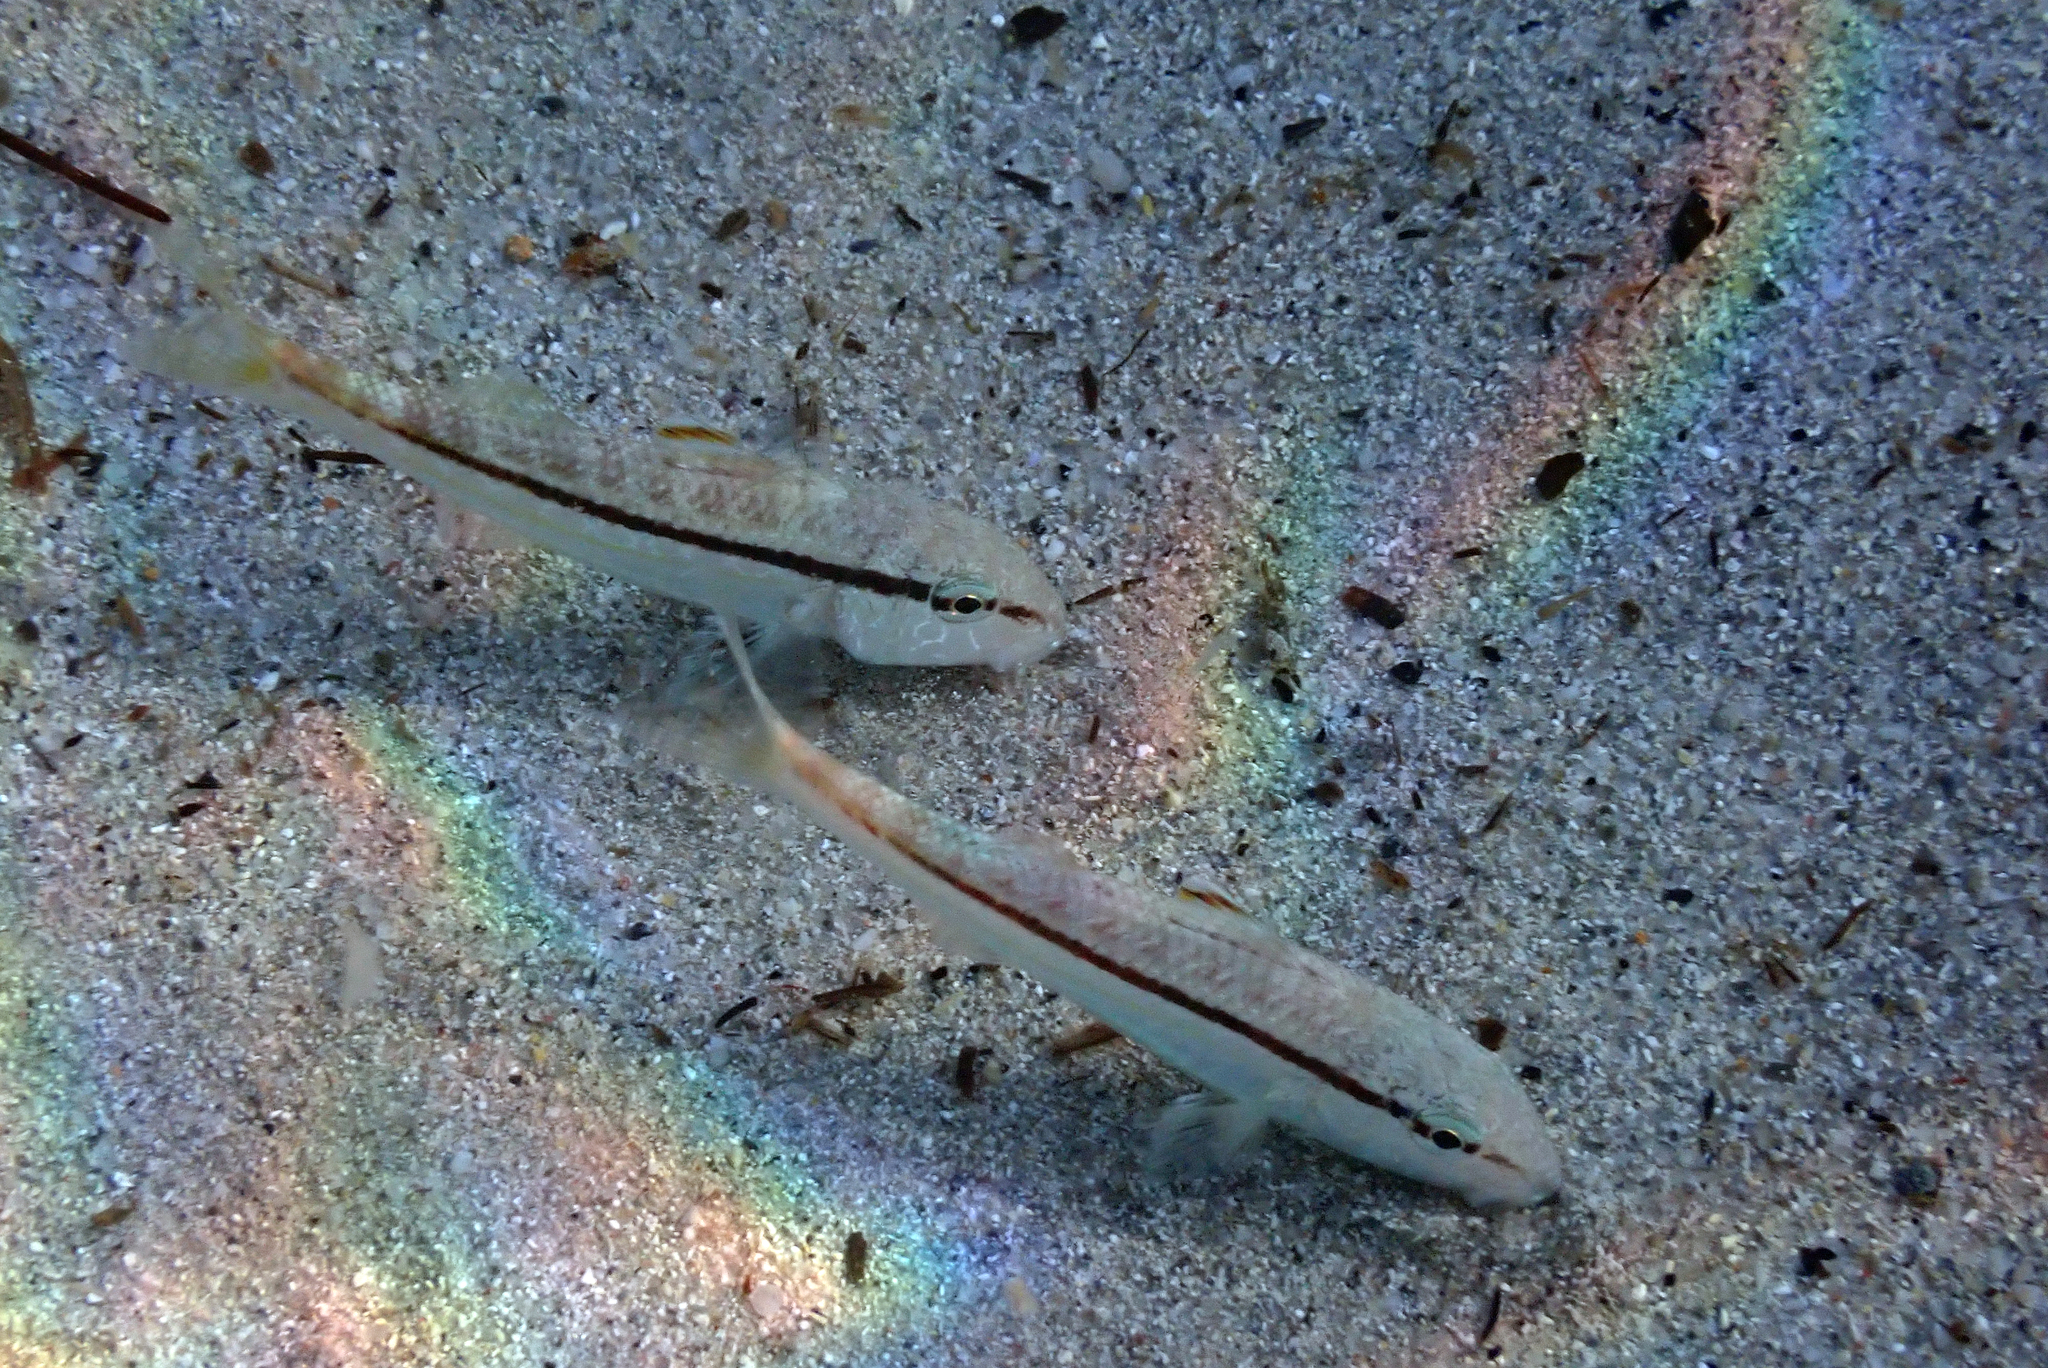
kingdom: Animalia
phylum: Chordata
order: Perciformes
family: Mullidae
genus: Mullus
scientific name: Mullus surmuletus
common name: Red mullet
